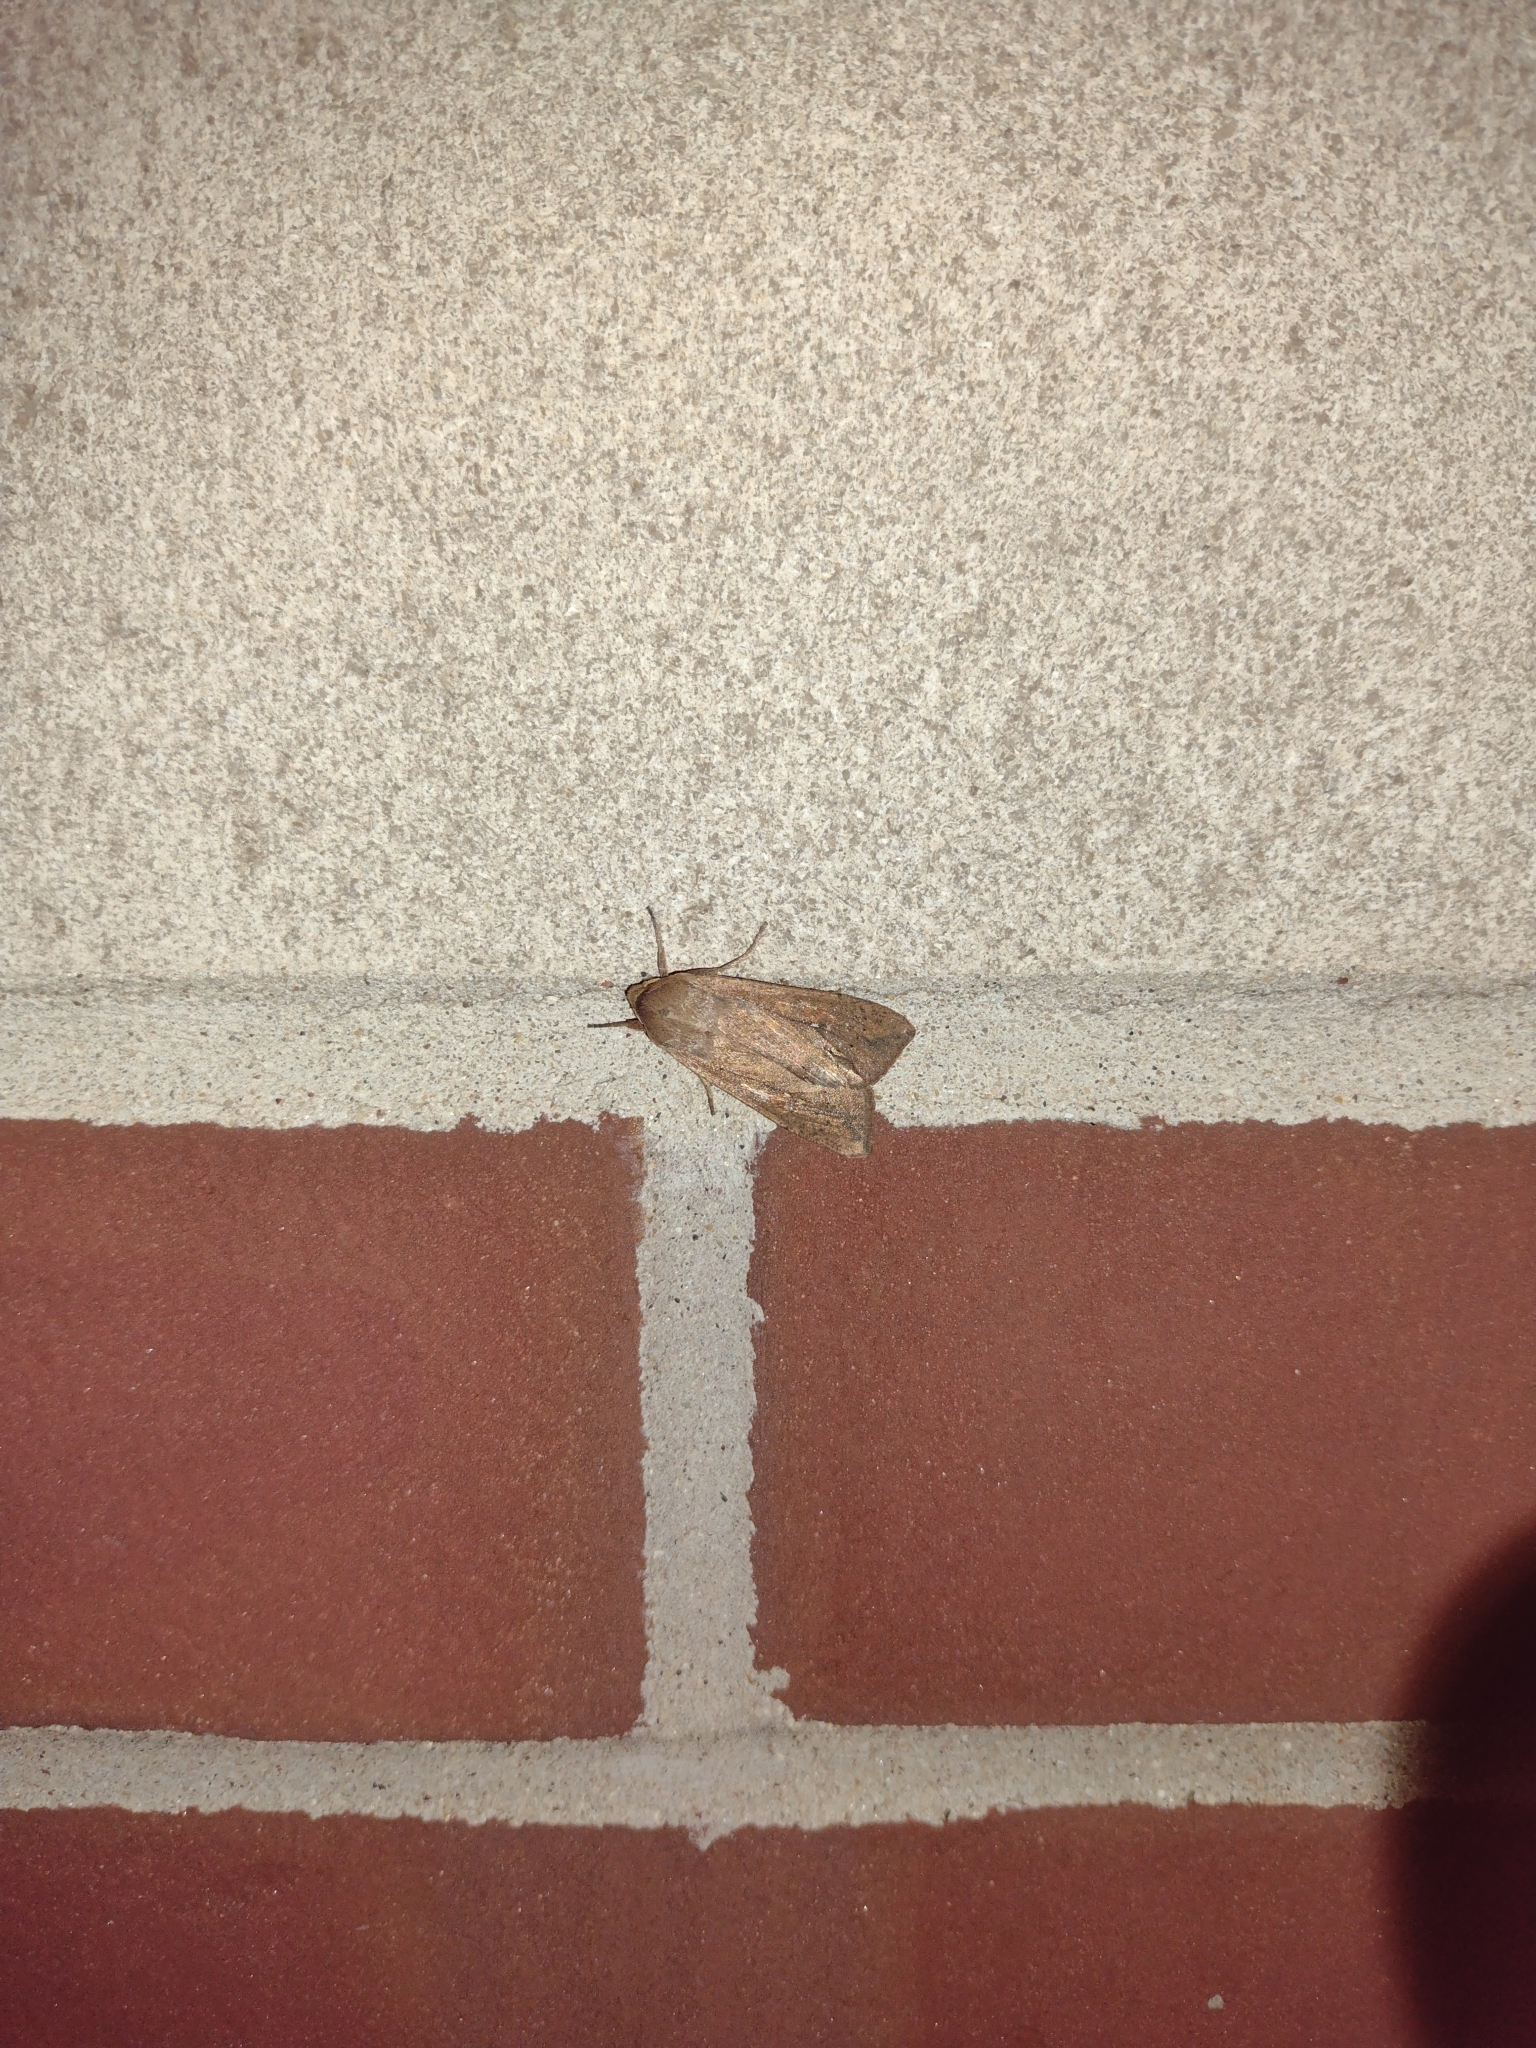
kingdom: Animalia
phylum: Arthropoda
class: Insecta
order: Lepidoptera
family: Noctuidae
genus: Mythimna
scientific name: Mythimna unipuncta
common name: White-speck
